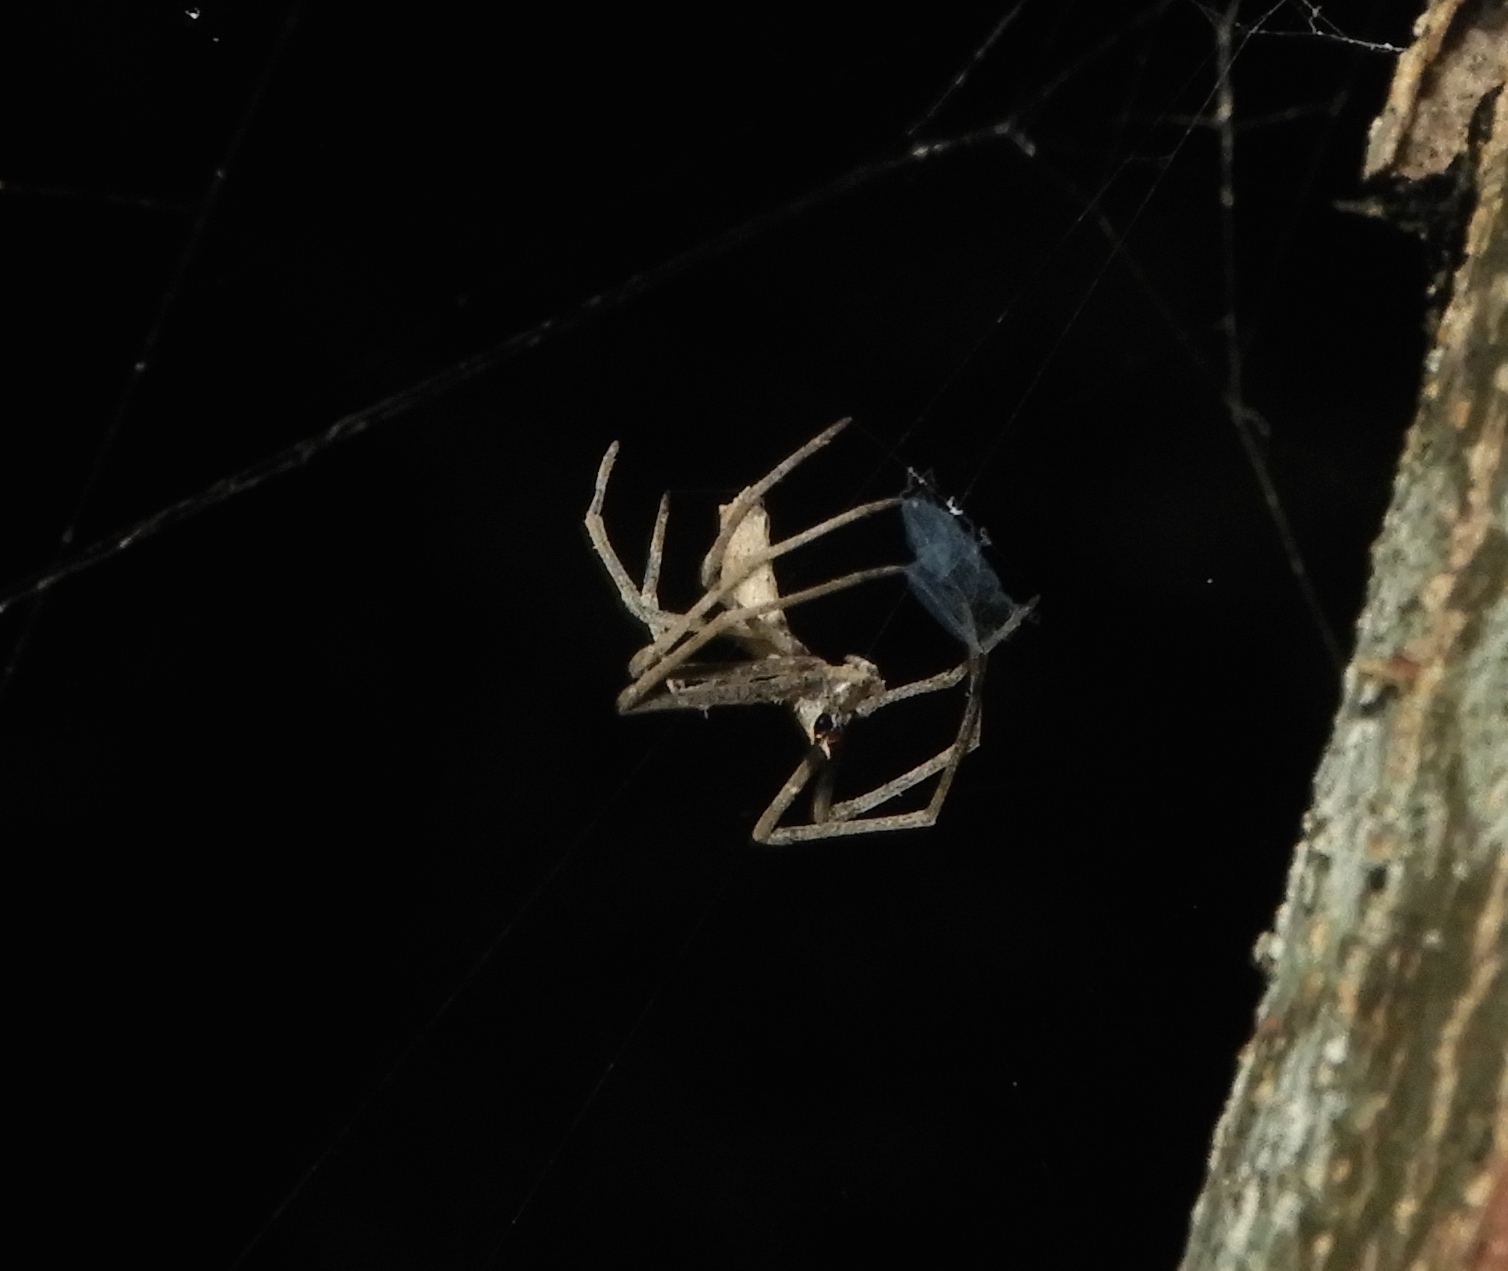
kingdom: Animalia
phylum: Arthropoda
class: Arachnida
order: Araneae
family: Deinopidae
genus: Deinopis
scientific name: Deinopis aurita
